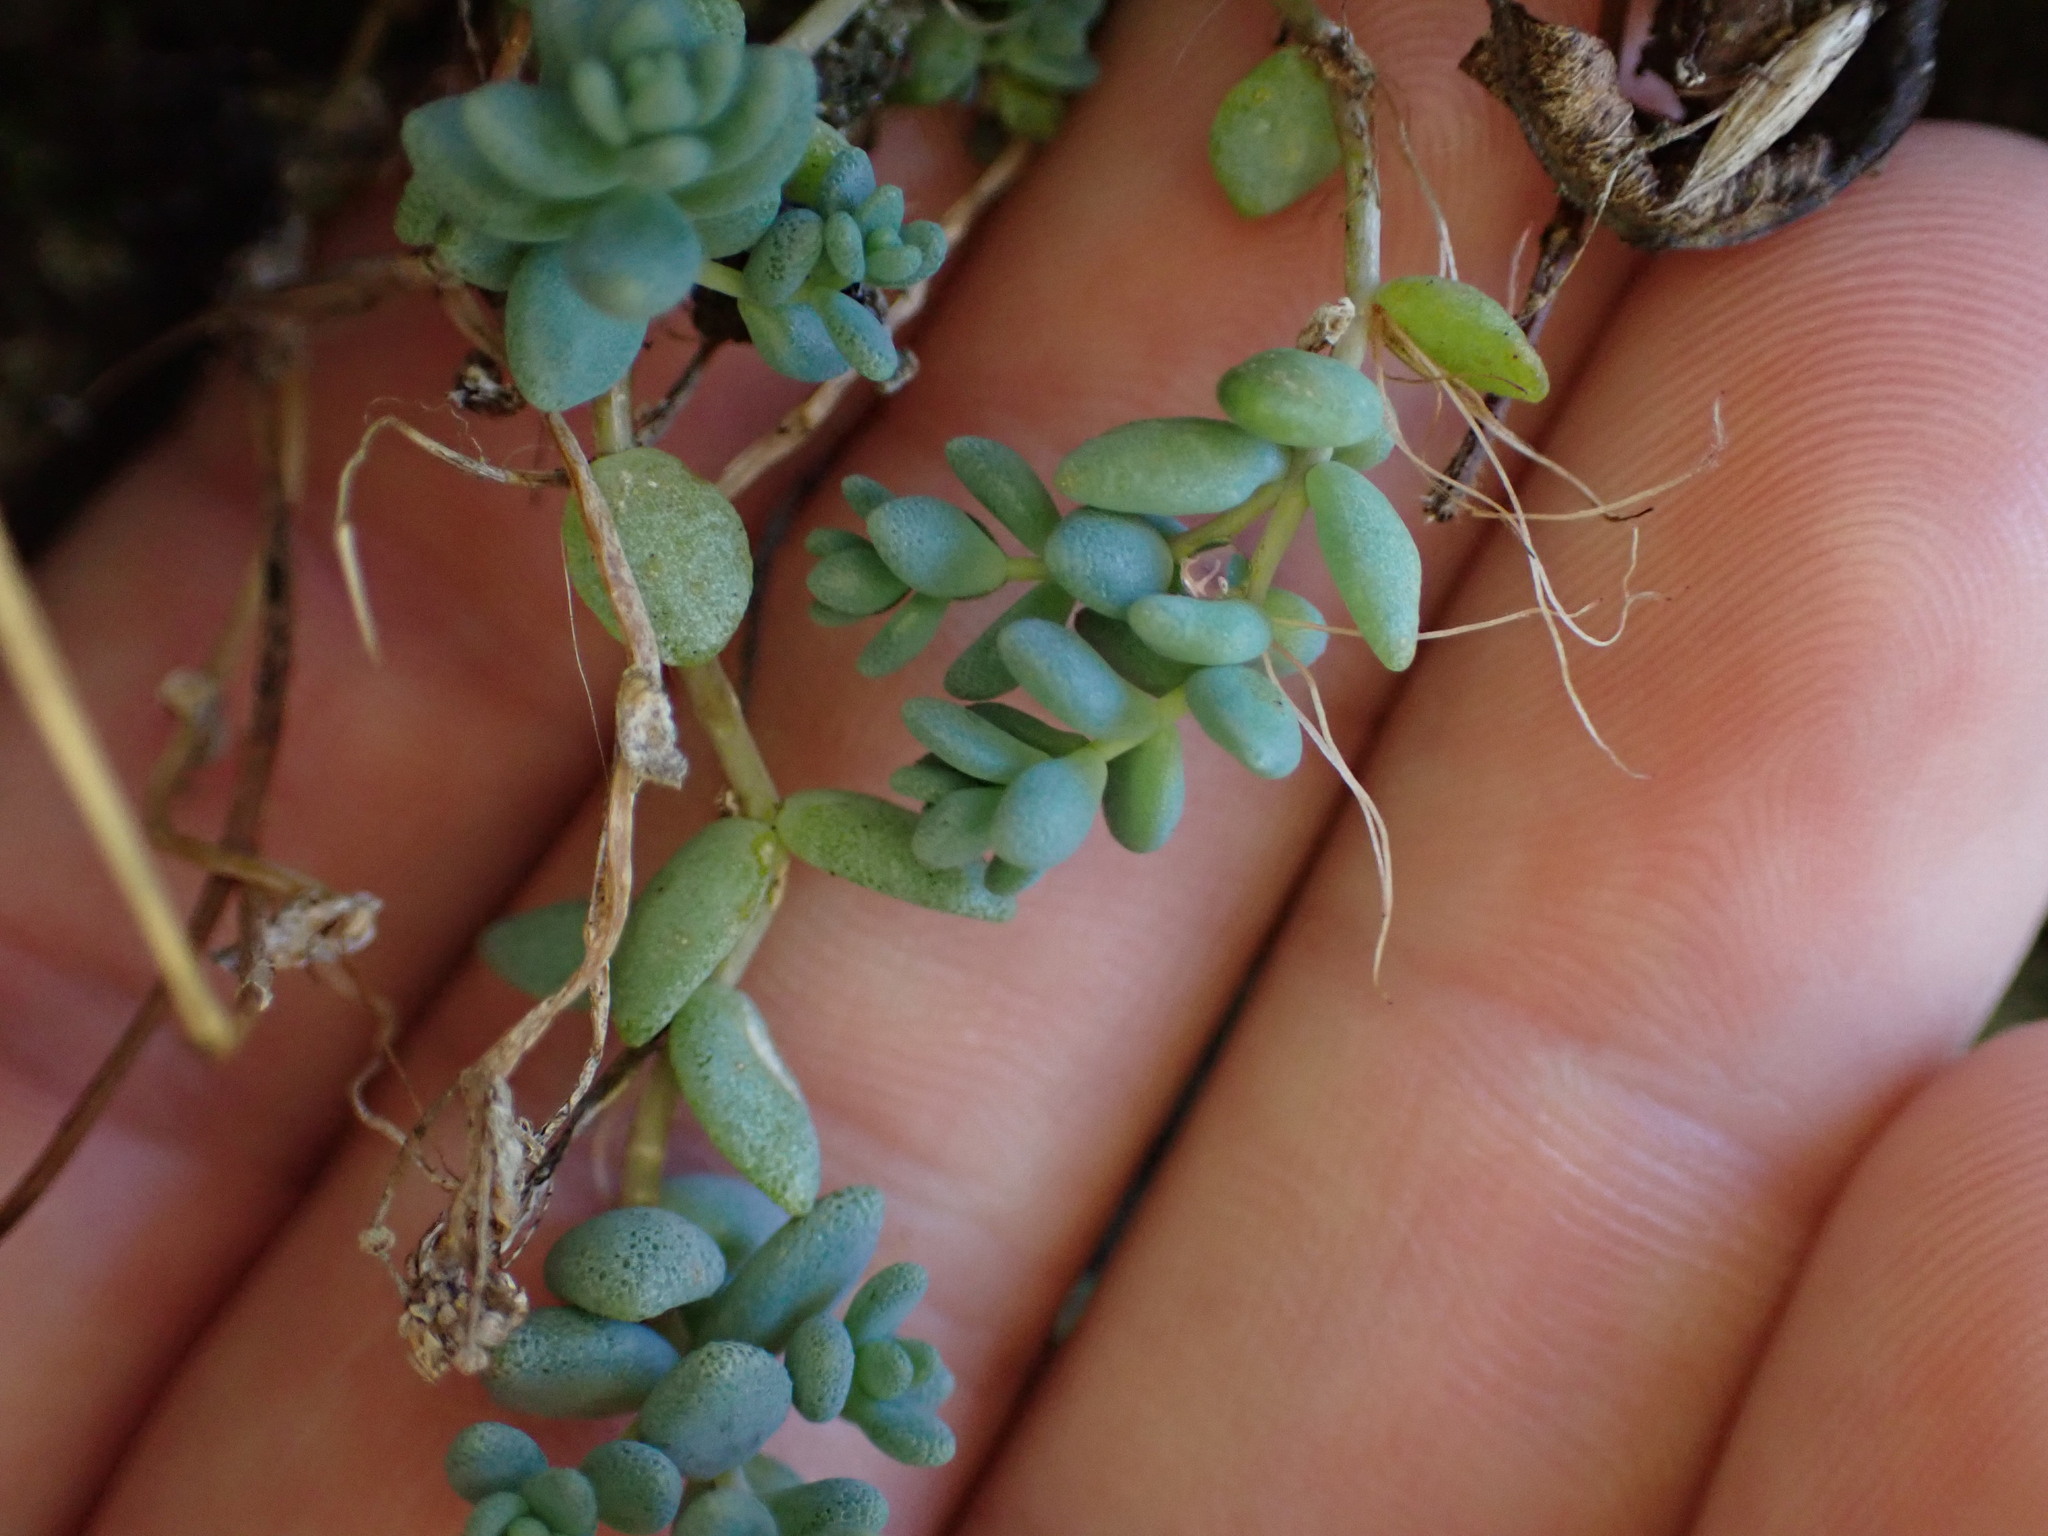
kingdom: Plantae
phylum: Tracheophyta
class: Magnoliopsida
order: Saxifragales
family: Crassulaceae
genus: Sedum
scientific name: Sedum dasyphyllum
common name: Thick-leaf stonecrop
